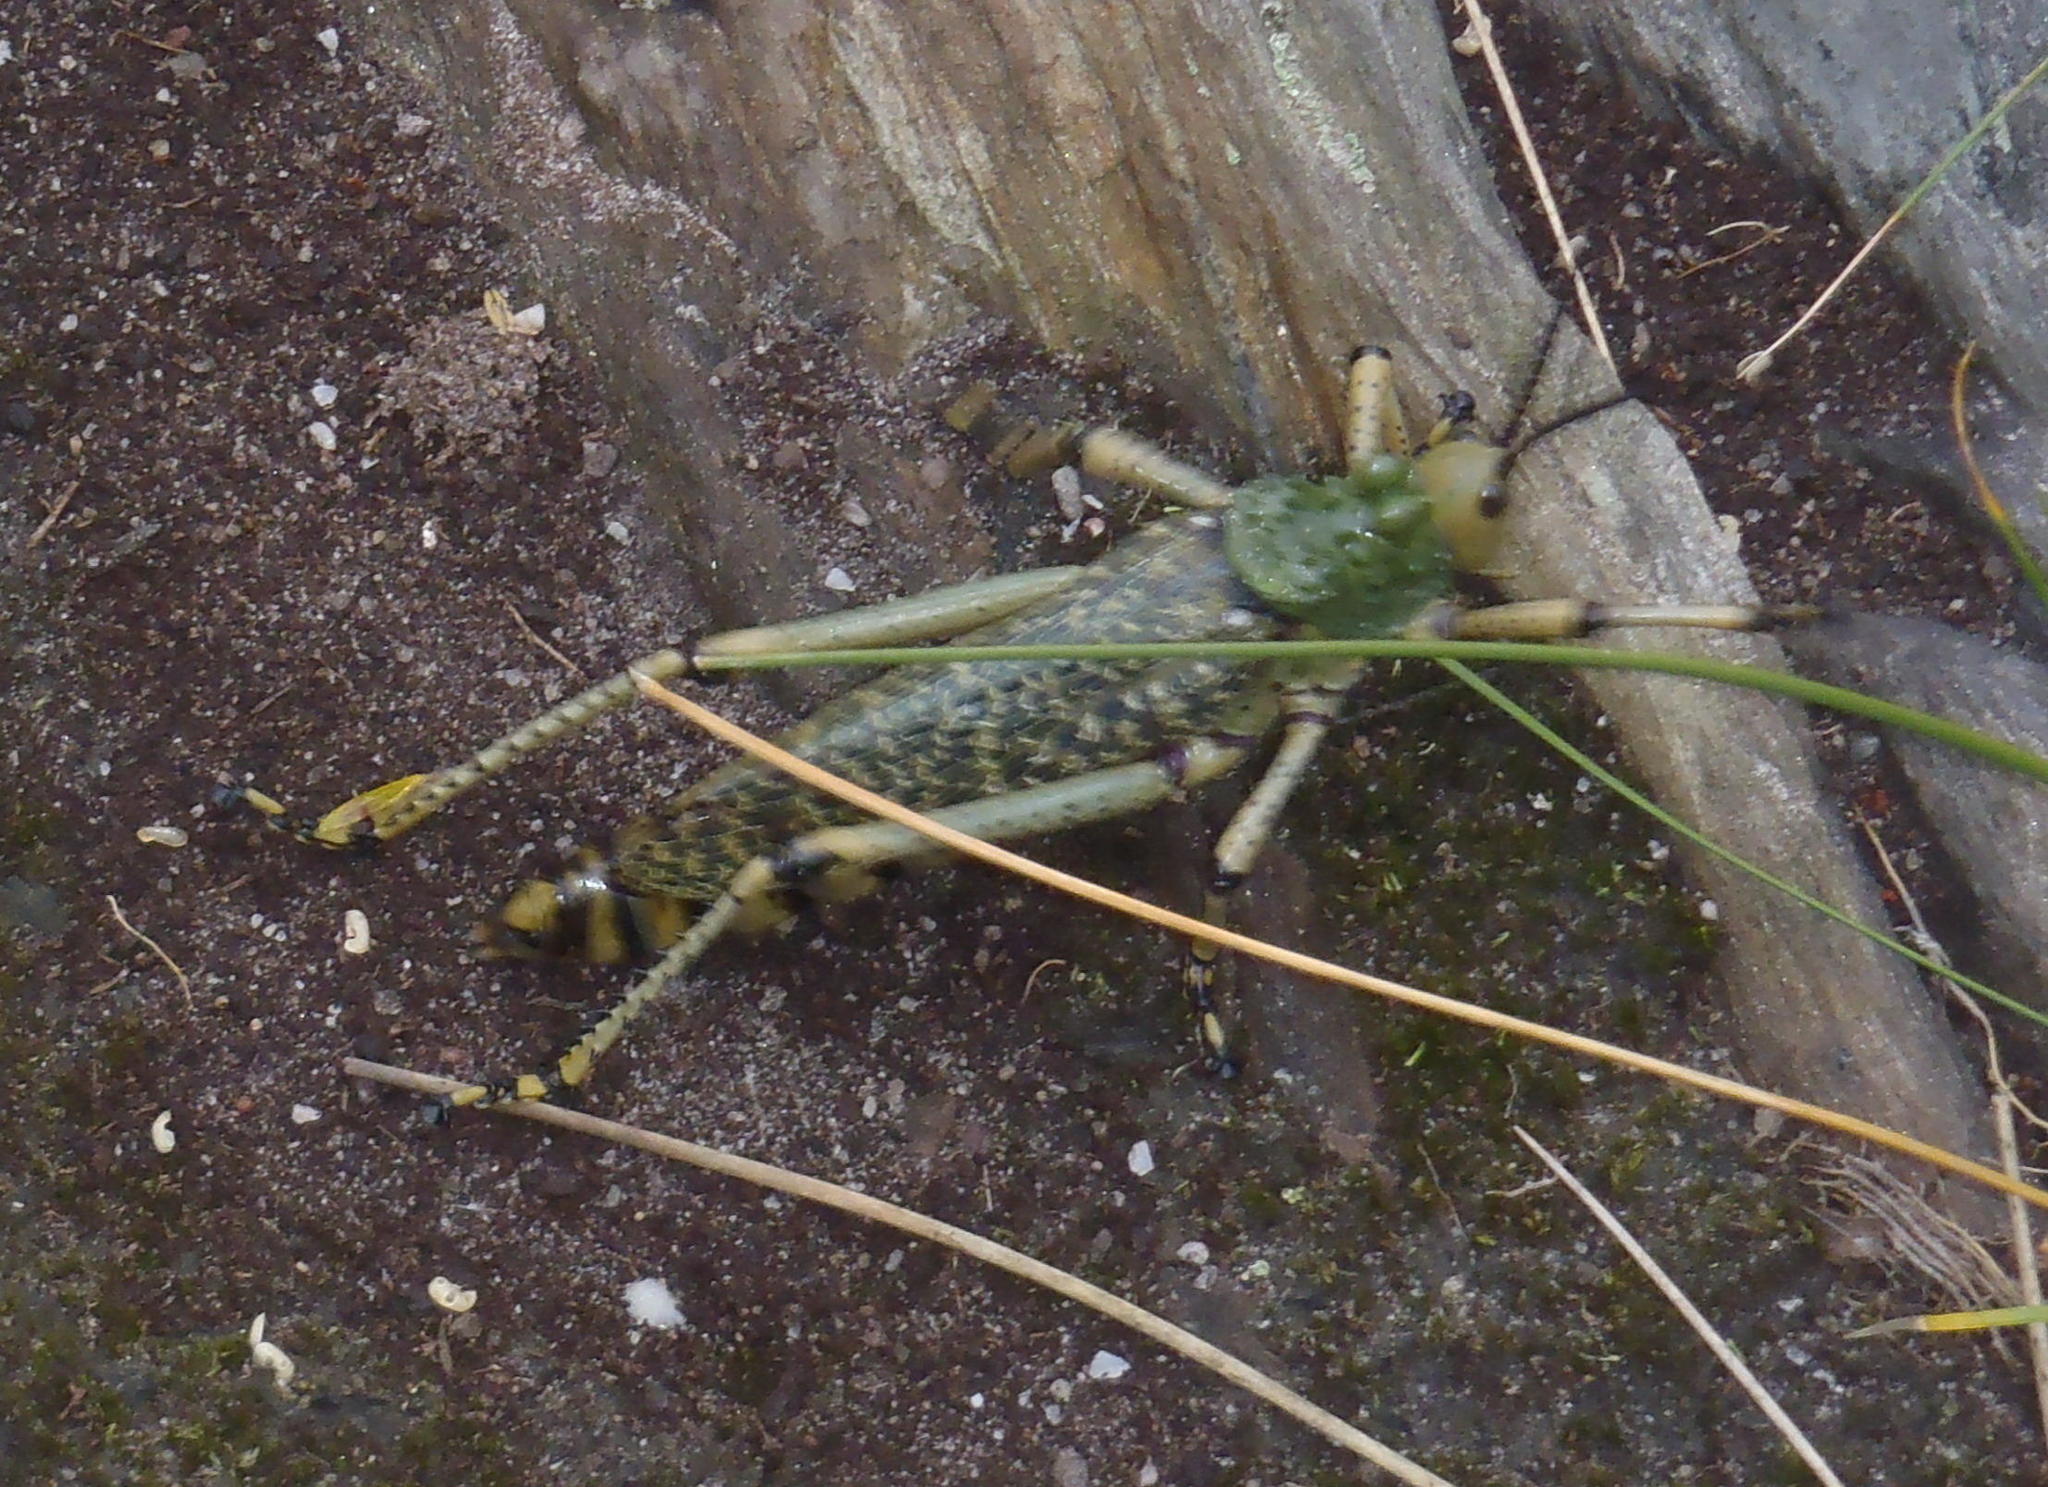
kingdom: Animalia
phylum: Arthropoda
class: Insecta
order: Orthoptera
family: Pyrgomorphidae
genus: Phymateus
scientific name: Phymateus leprosus
